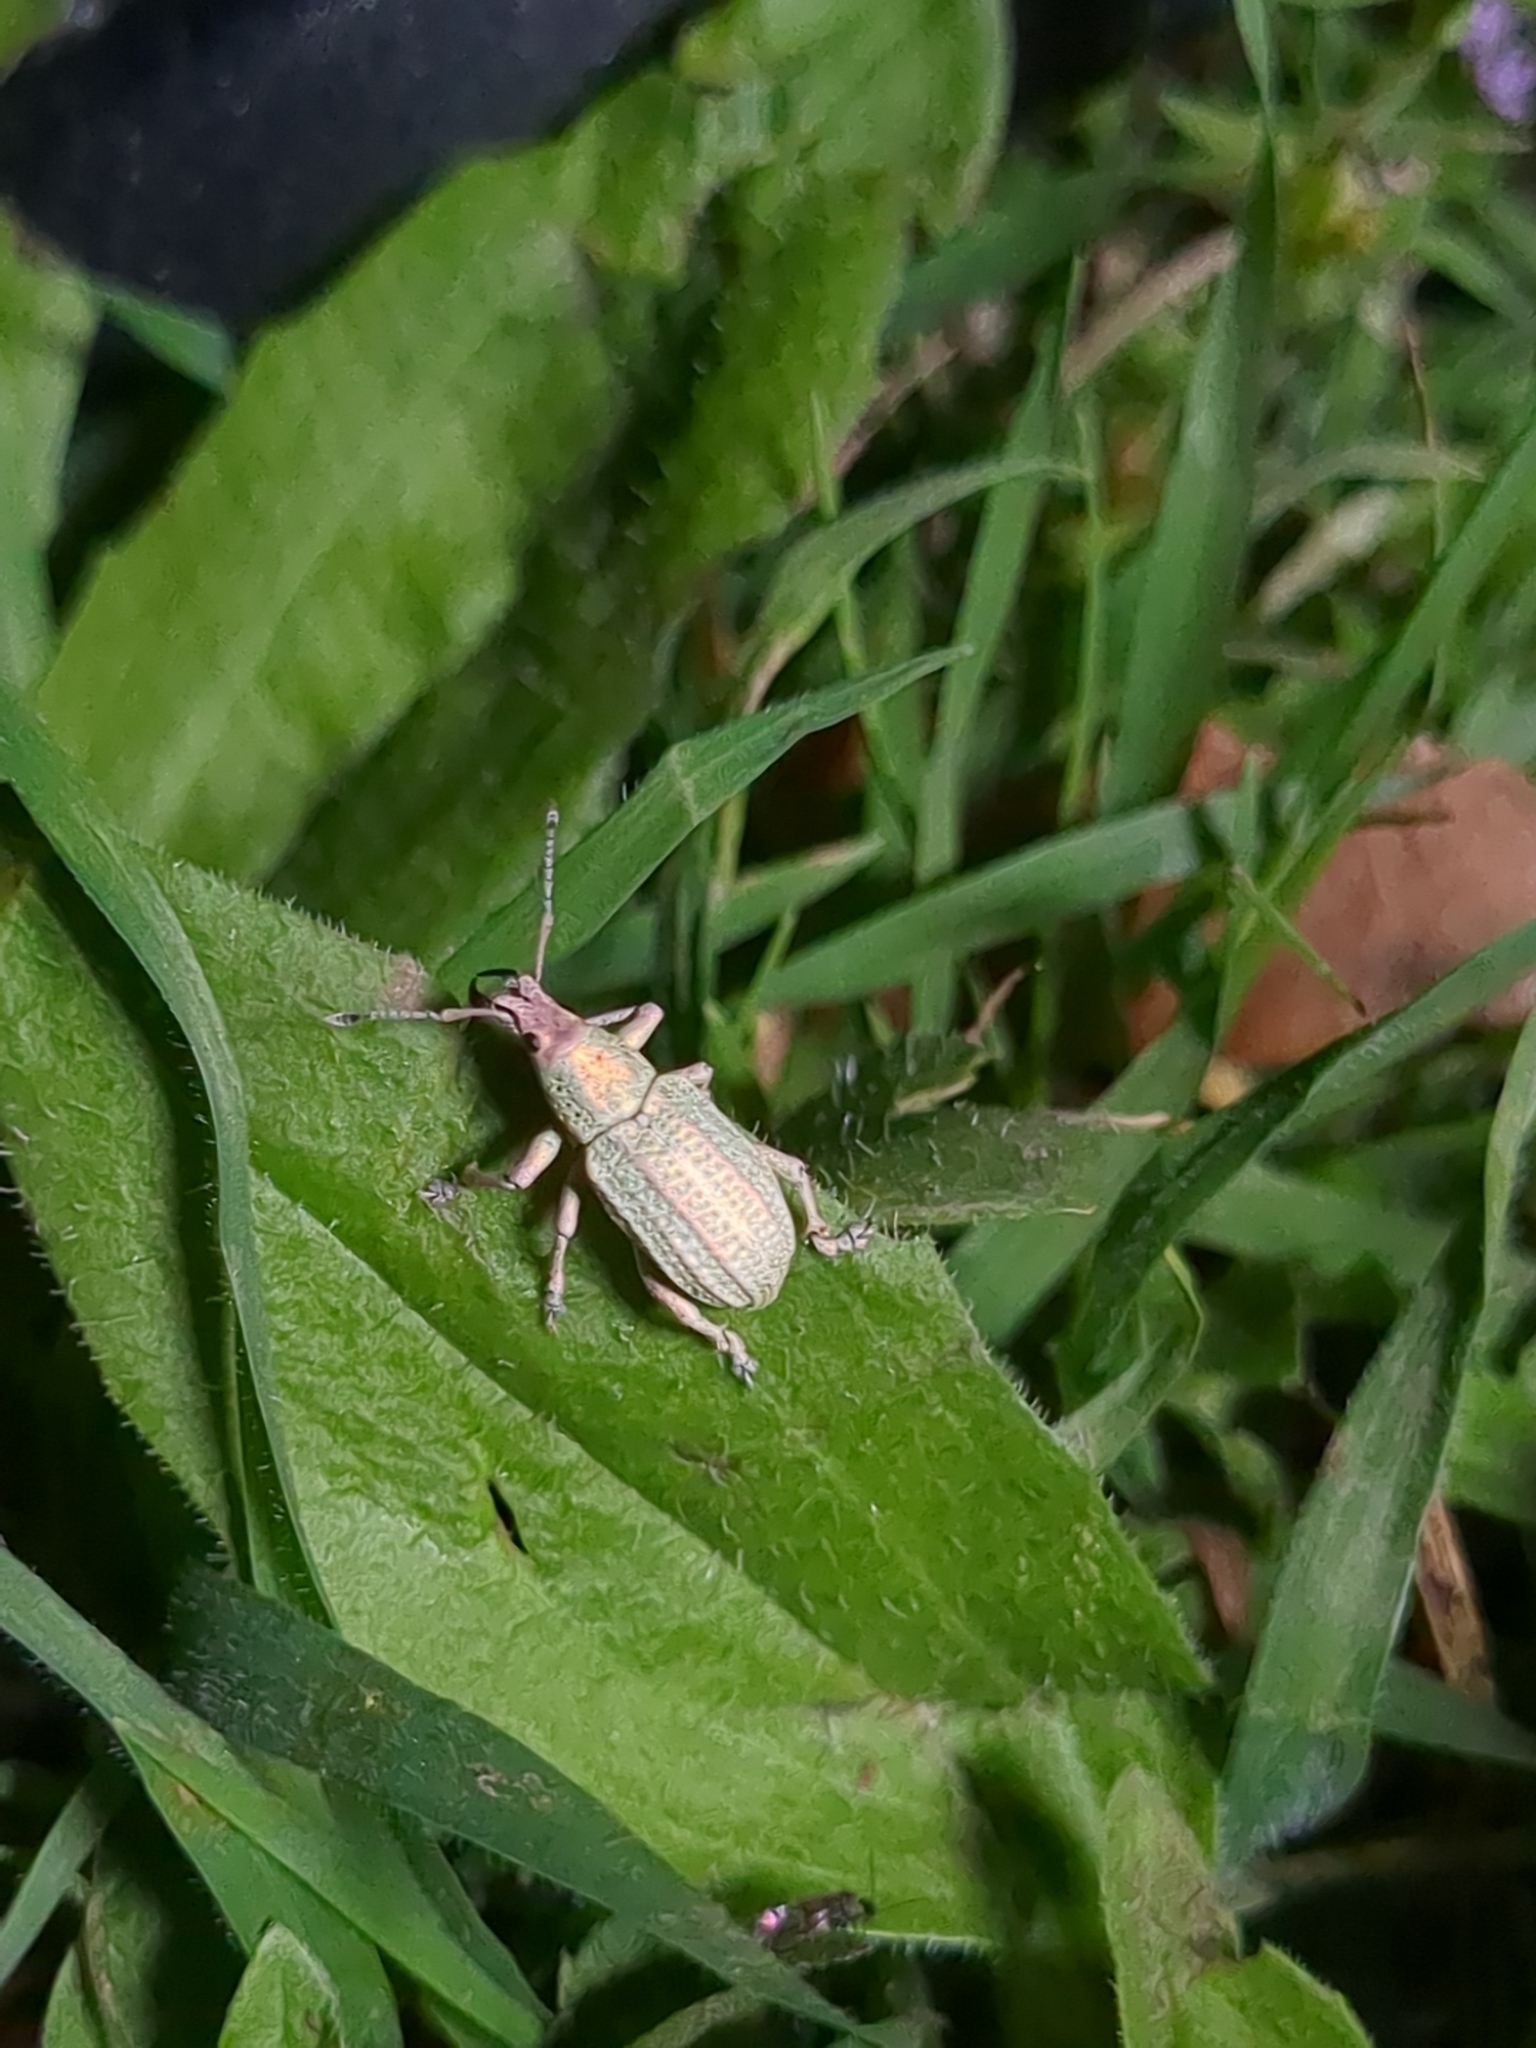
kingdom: Animalia
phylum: Arthropoda
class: Insecta
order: Coleoptera
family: Curculionidae
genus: Compsus
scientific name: Compsus auricephalus
